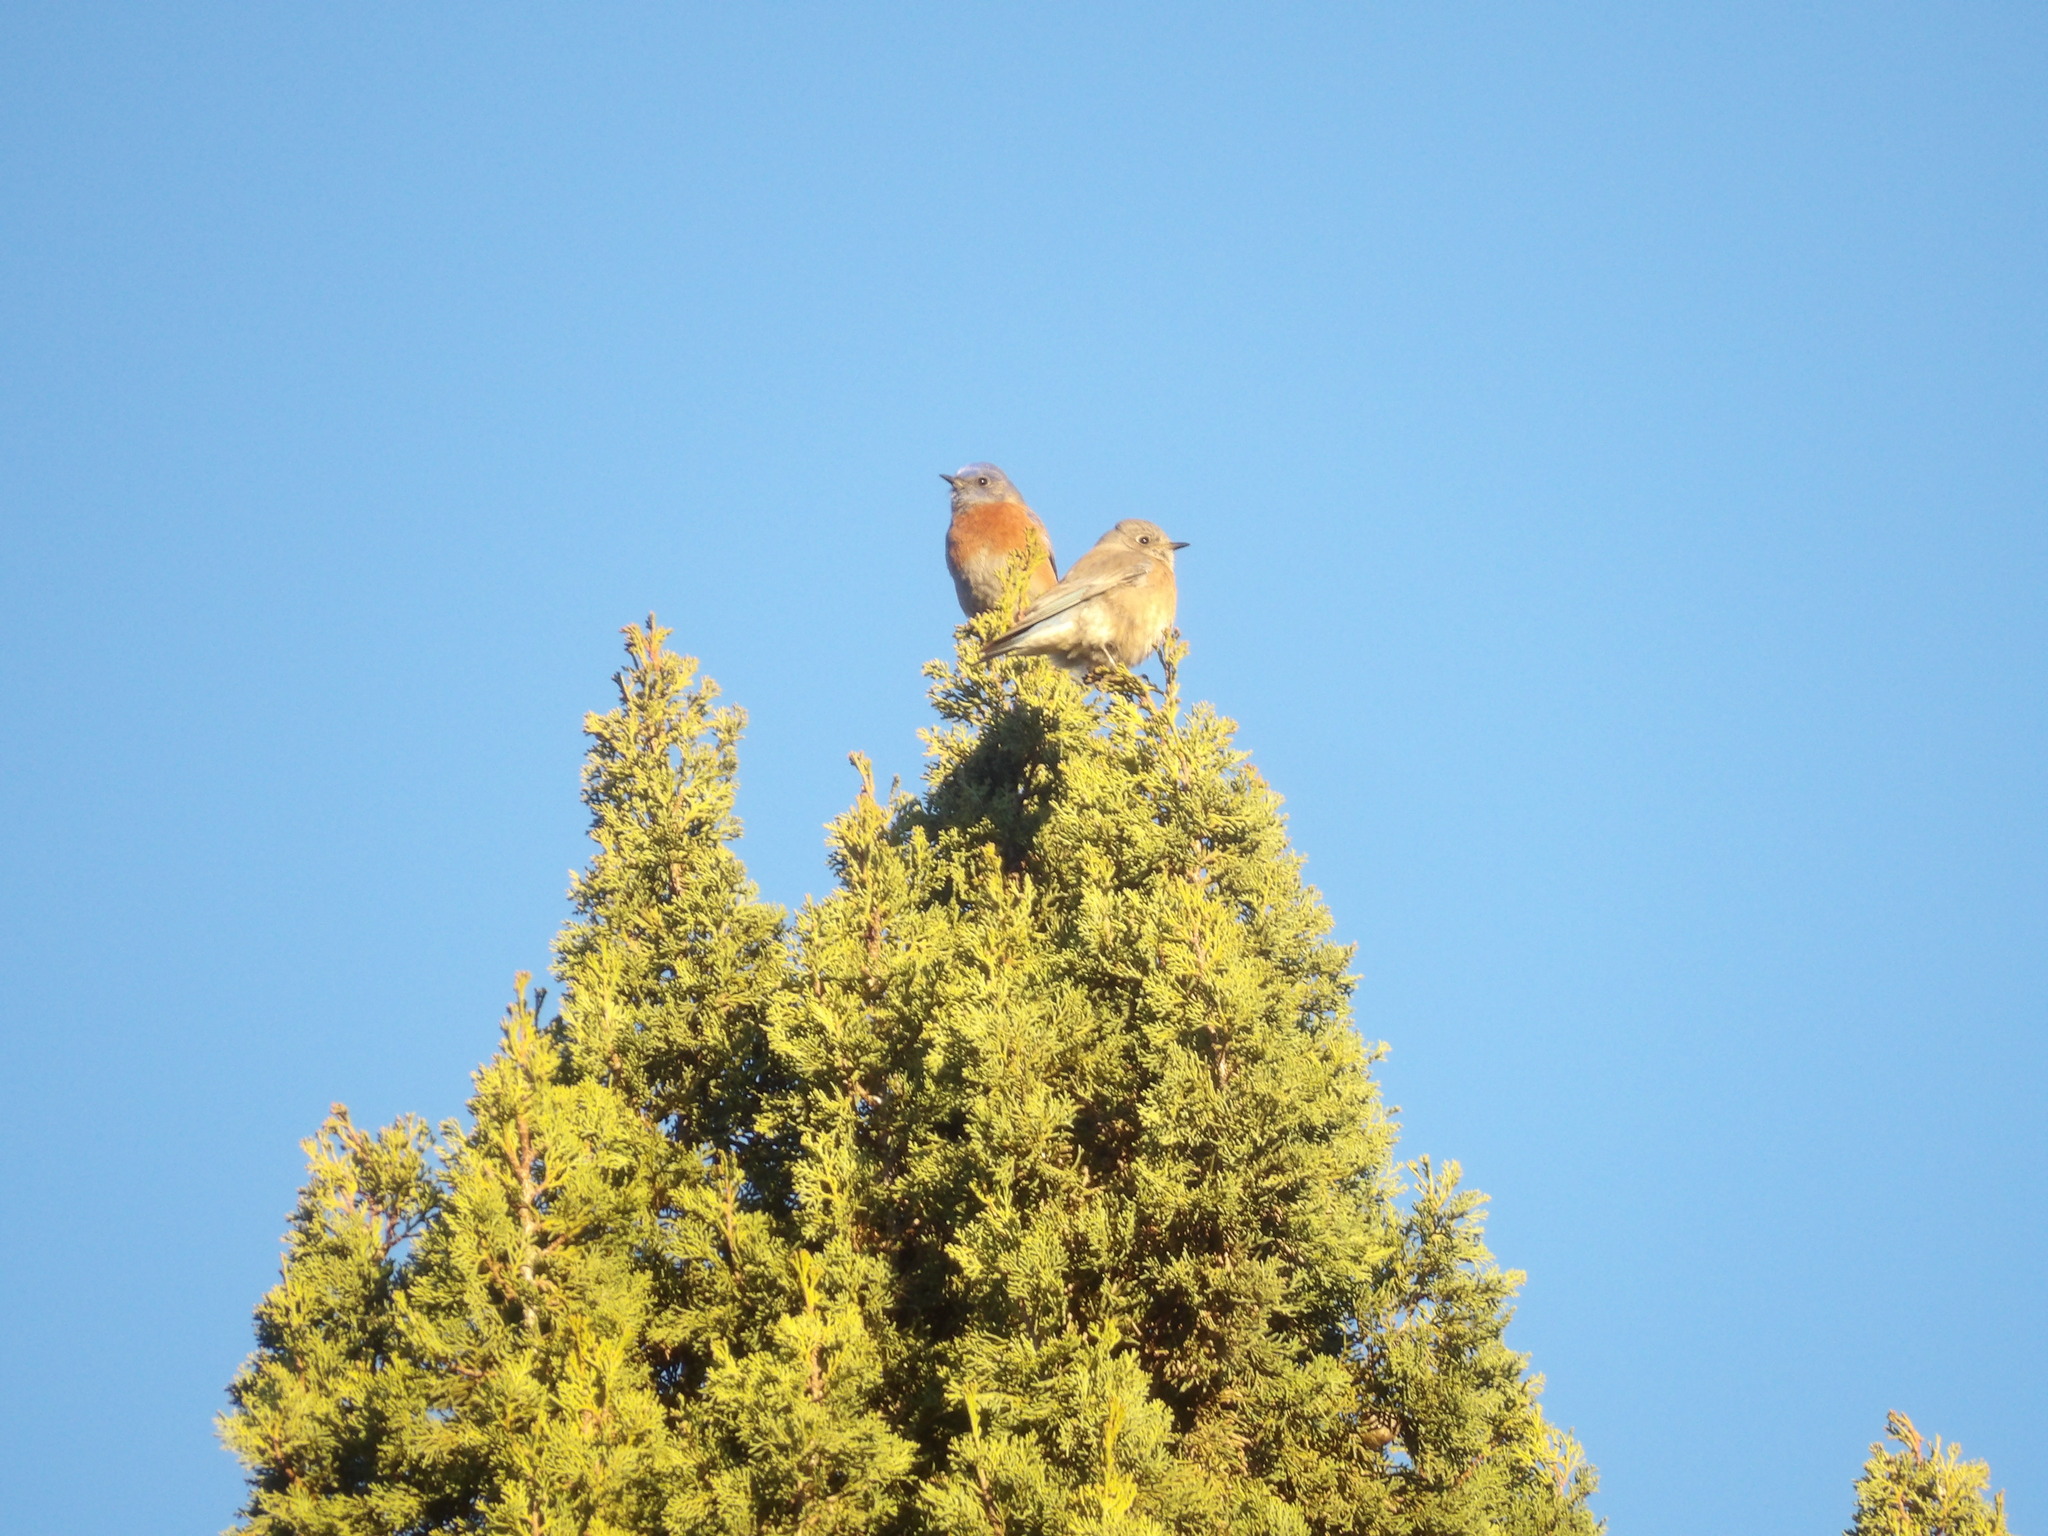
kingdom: Animalia
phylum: Chordata
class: Aves
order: Passeriformes
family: Turdidae
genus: Sialia
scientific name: Sialia mexicana
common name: Western bluebird
